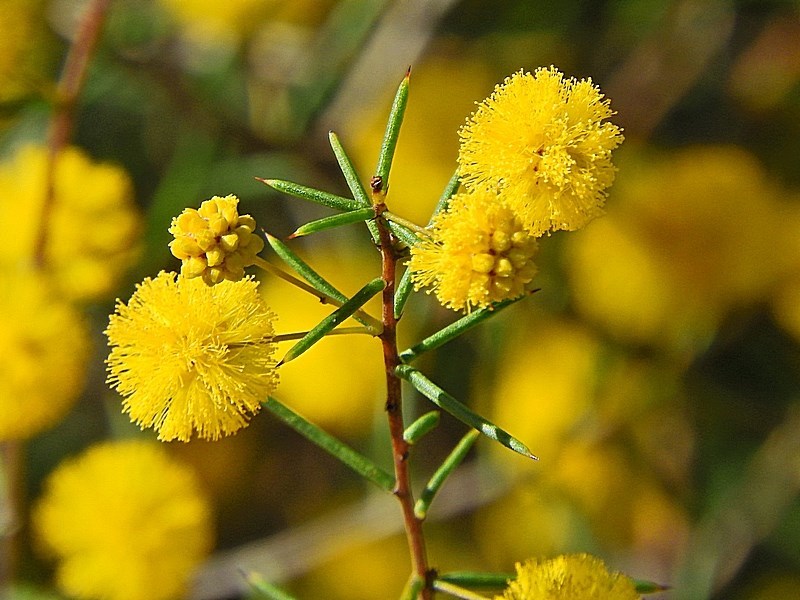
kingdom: Plantae
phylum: Tracheophyta
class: Magnoliopsida
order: Fabales
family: Fabaceae
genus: Acacia
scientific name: Acacia brownii
